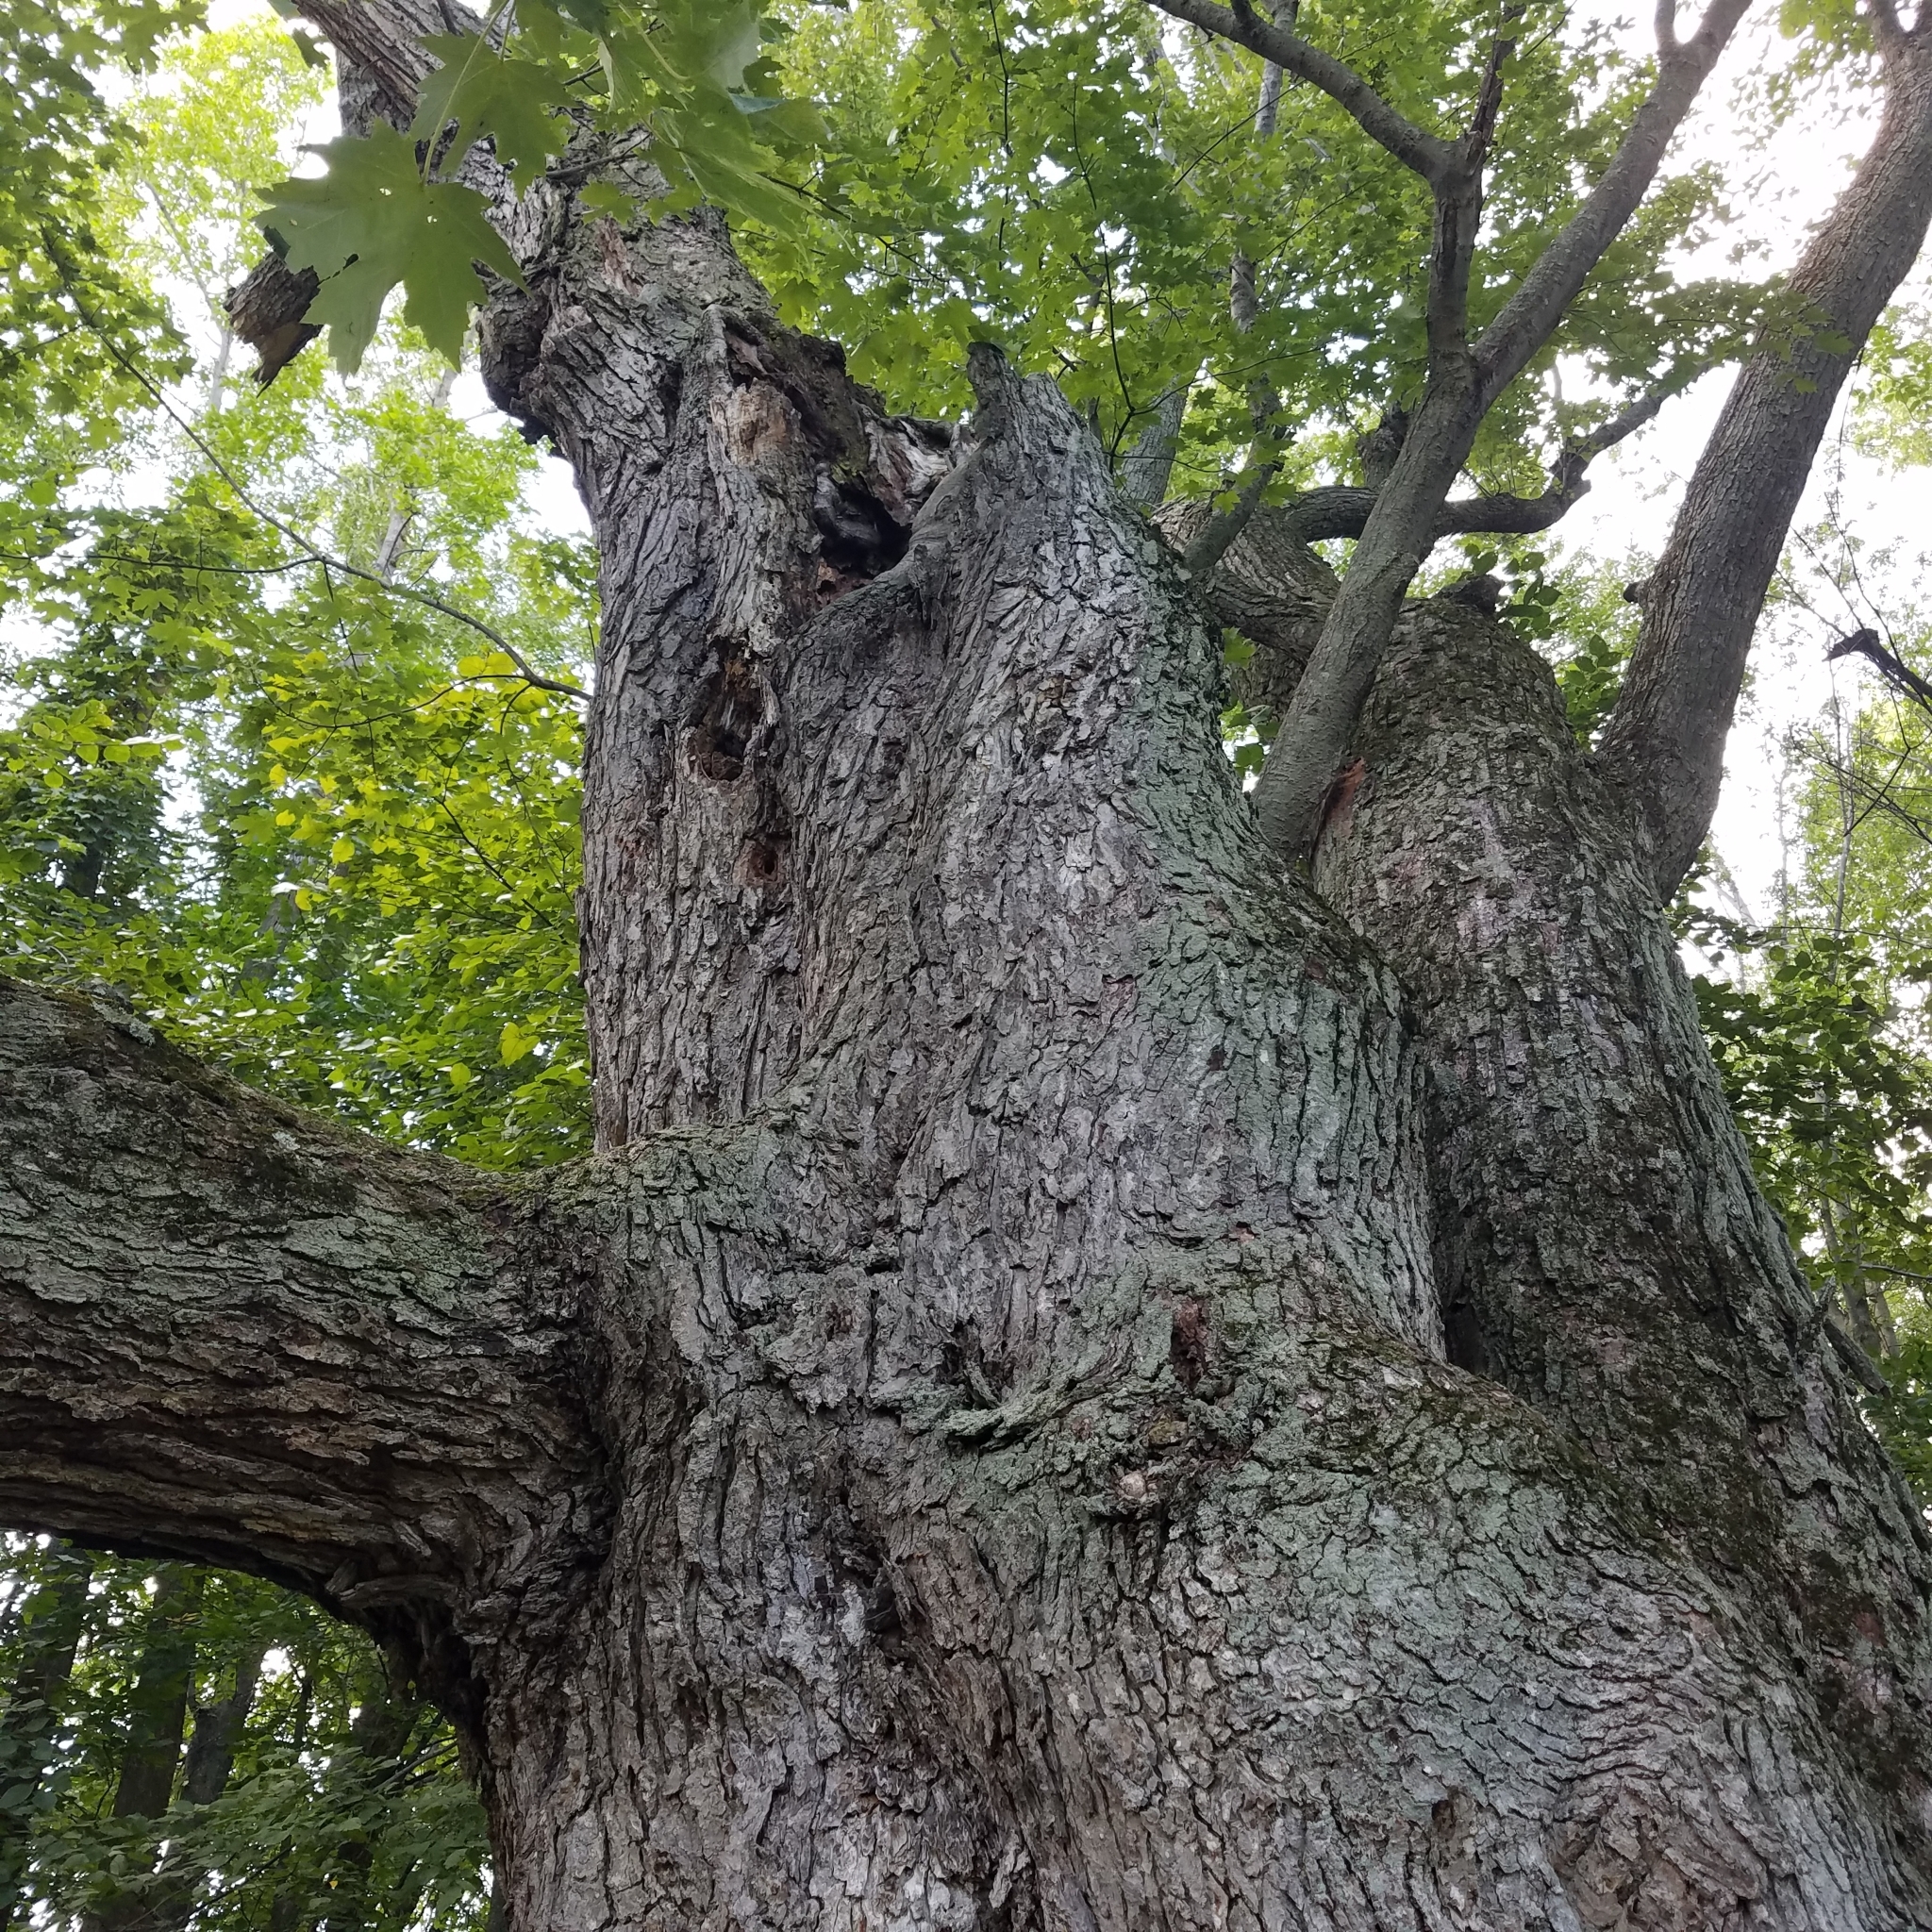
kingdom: Plantae
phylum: Tracheophyta
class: Magnoliopsida
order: Sapindales
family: Sapindaceae
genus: Acer
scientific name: Acer saccharinum
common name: Silver maple
